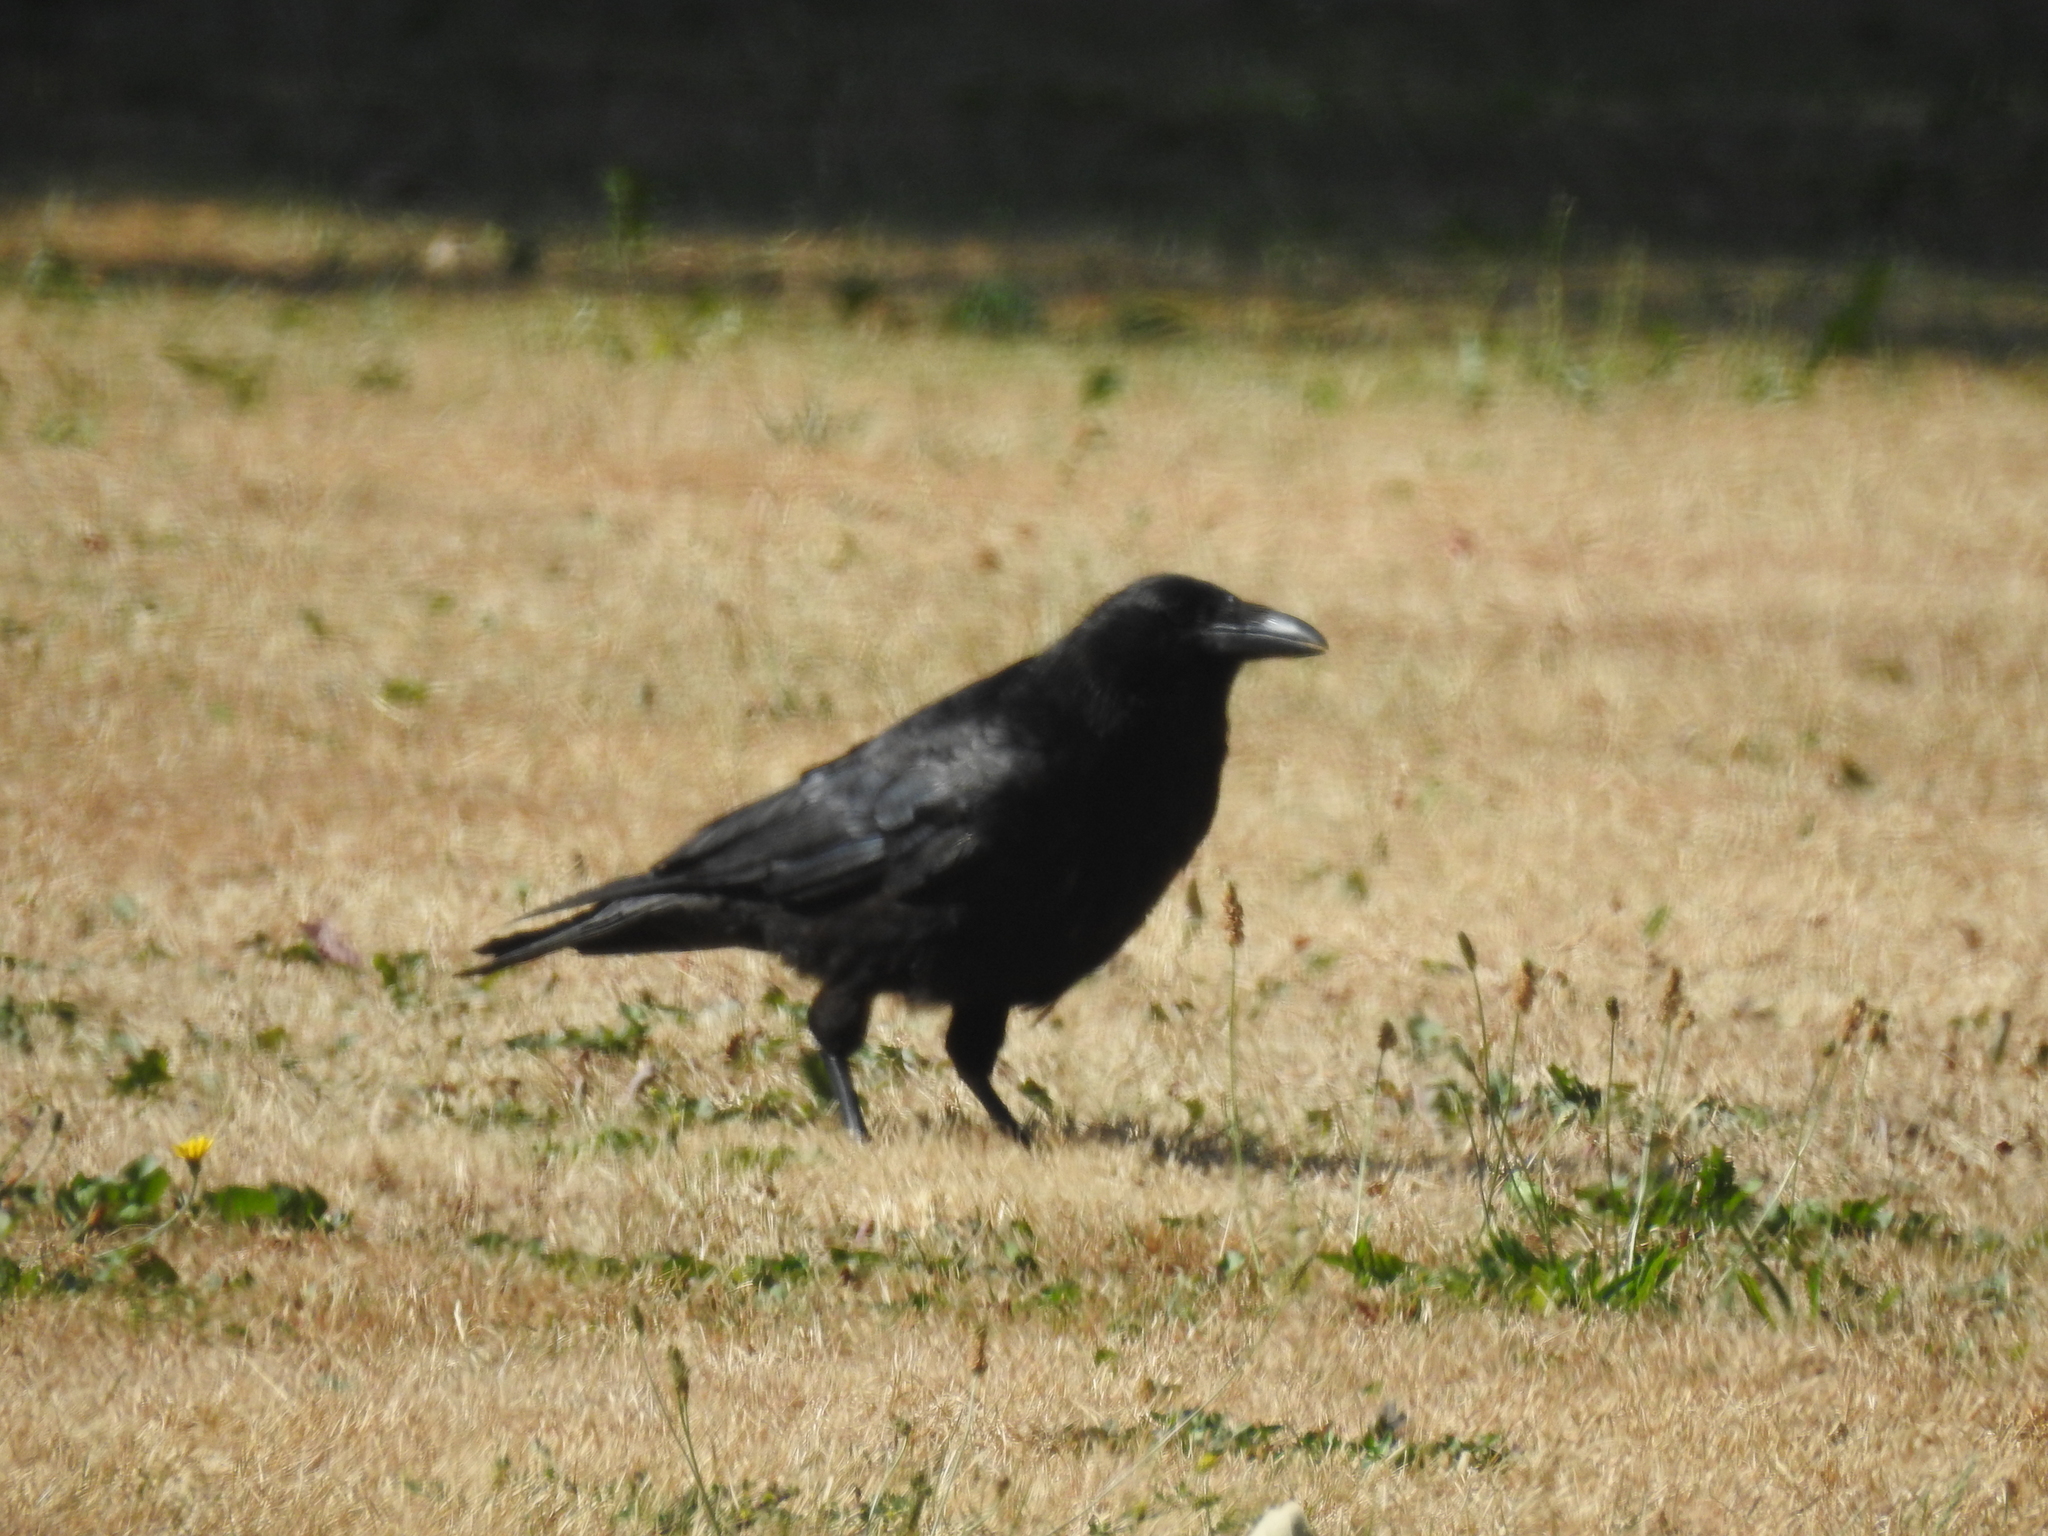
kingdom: Animalia
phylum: Chordata
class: Aves
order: Passeriformes
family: Corvidae
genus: Corvus
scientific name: Corvus corone
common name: Carrion crow
